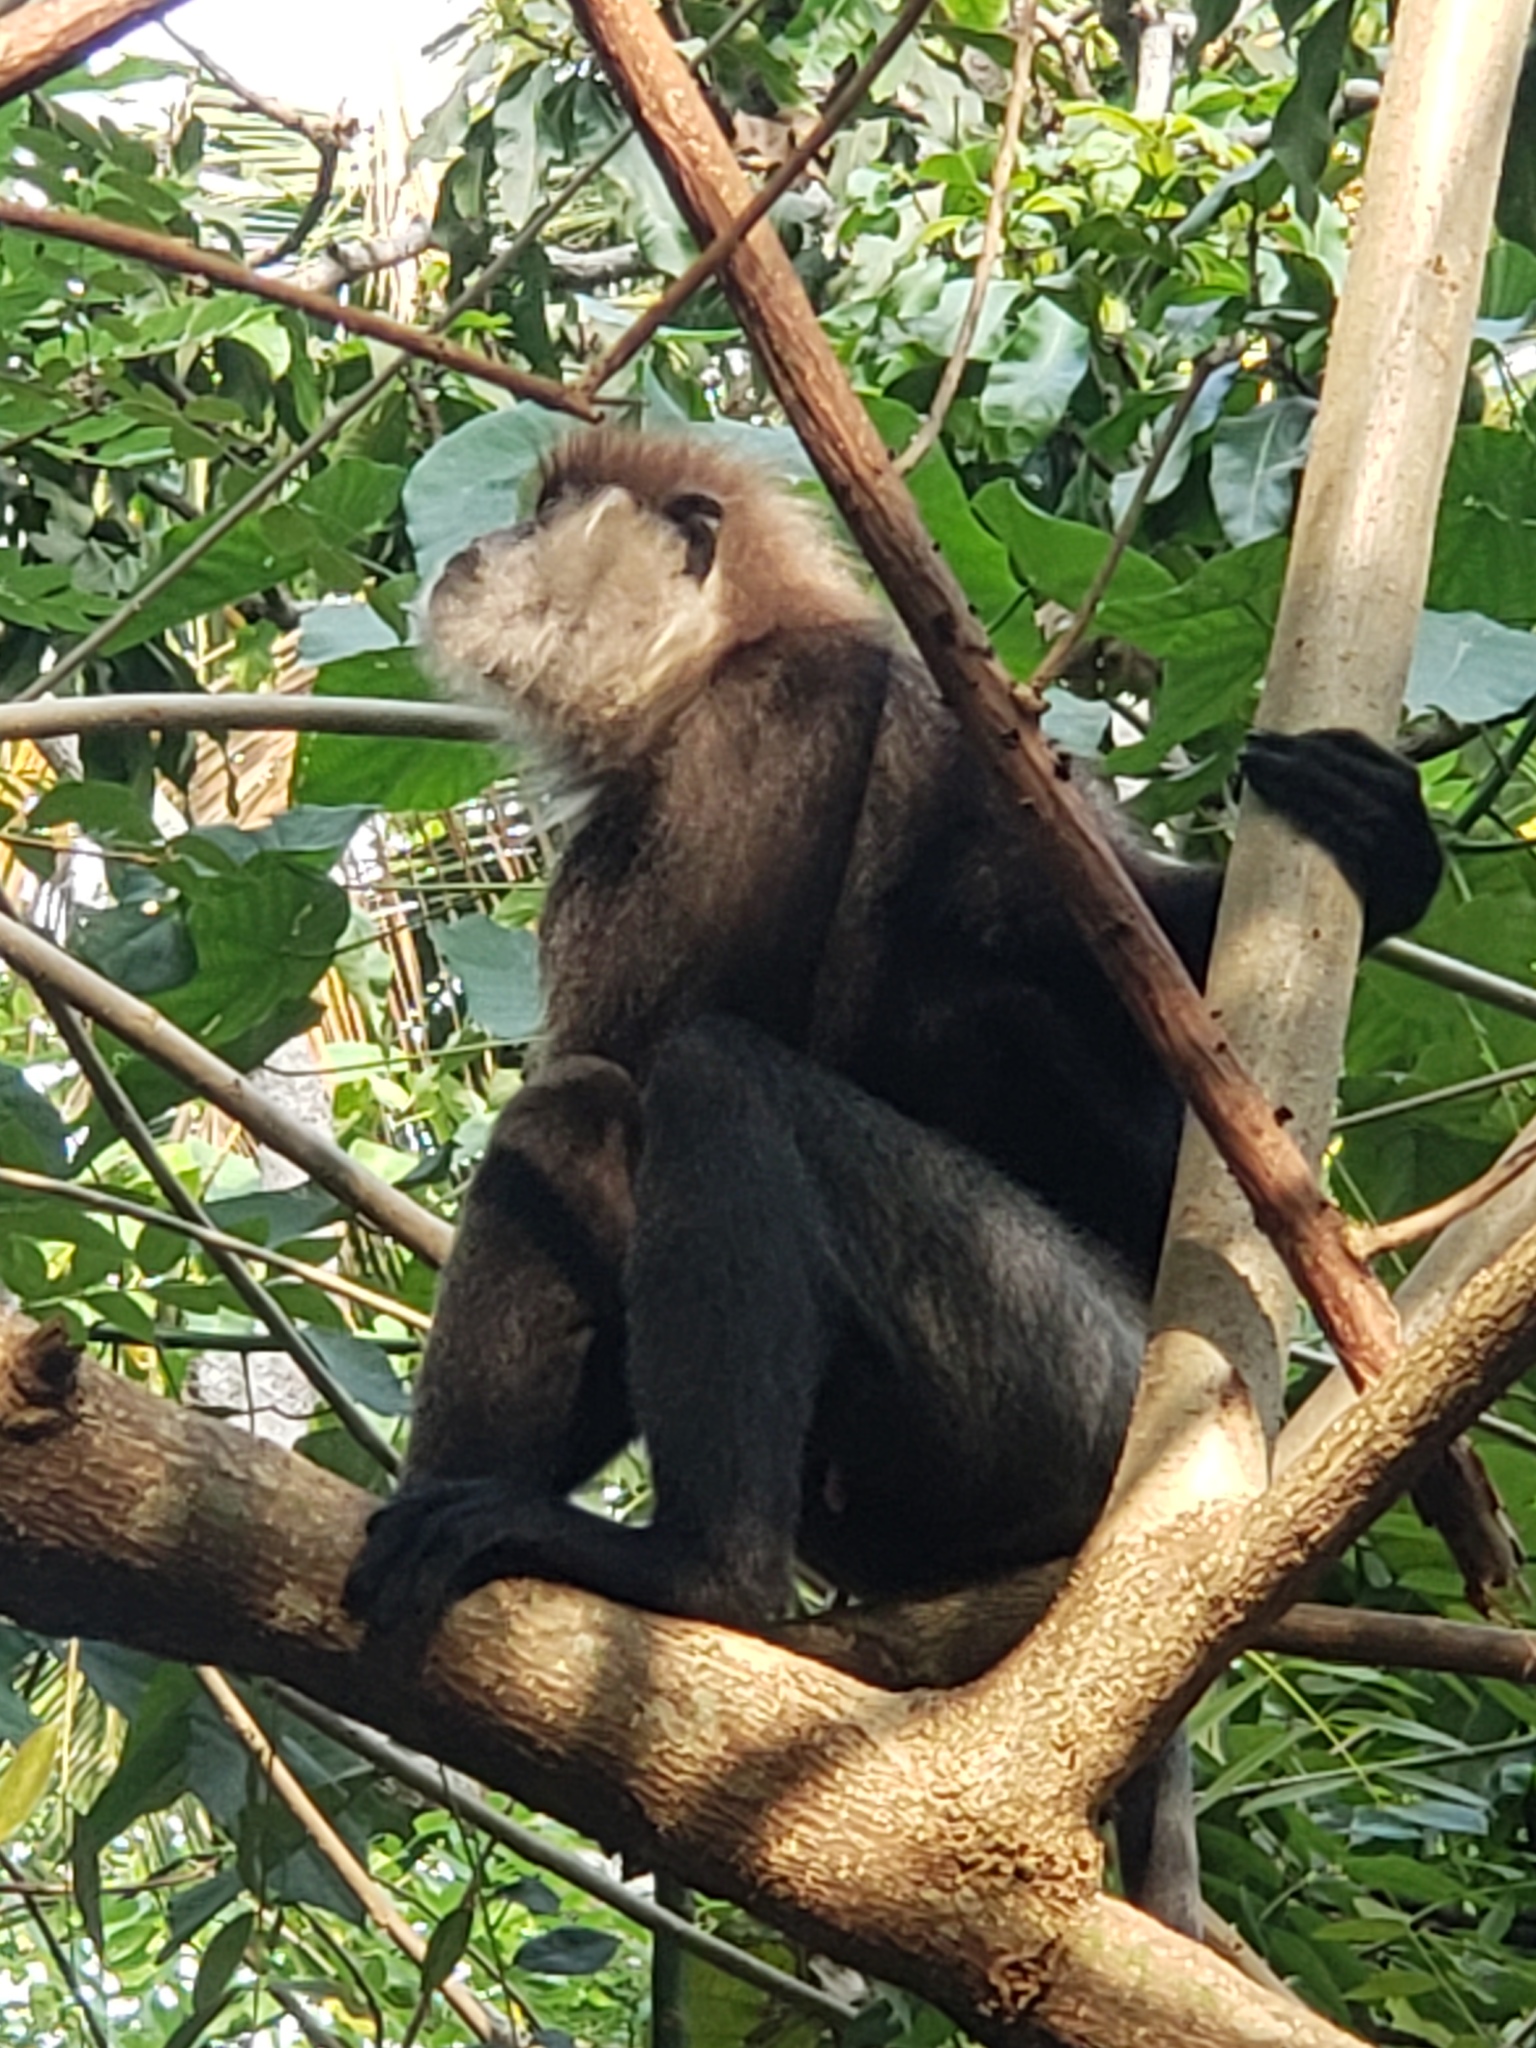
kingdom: Animalia
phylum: Chordata
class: Mammalia
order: Primates
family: Cercopithecidae
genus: Semnopithecus
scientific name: Semnopithecus vetulus
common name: Purple-faced langur
